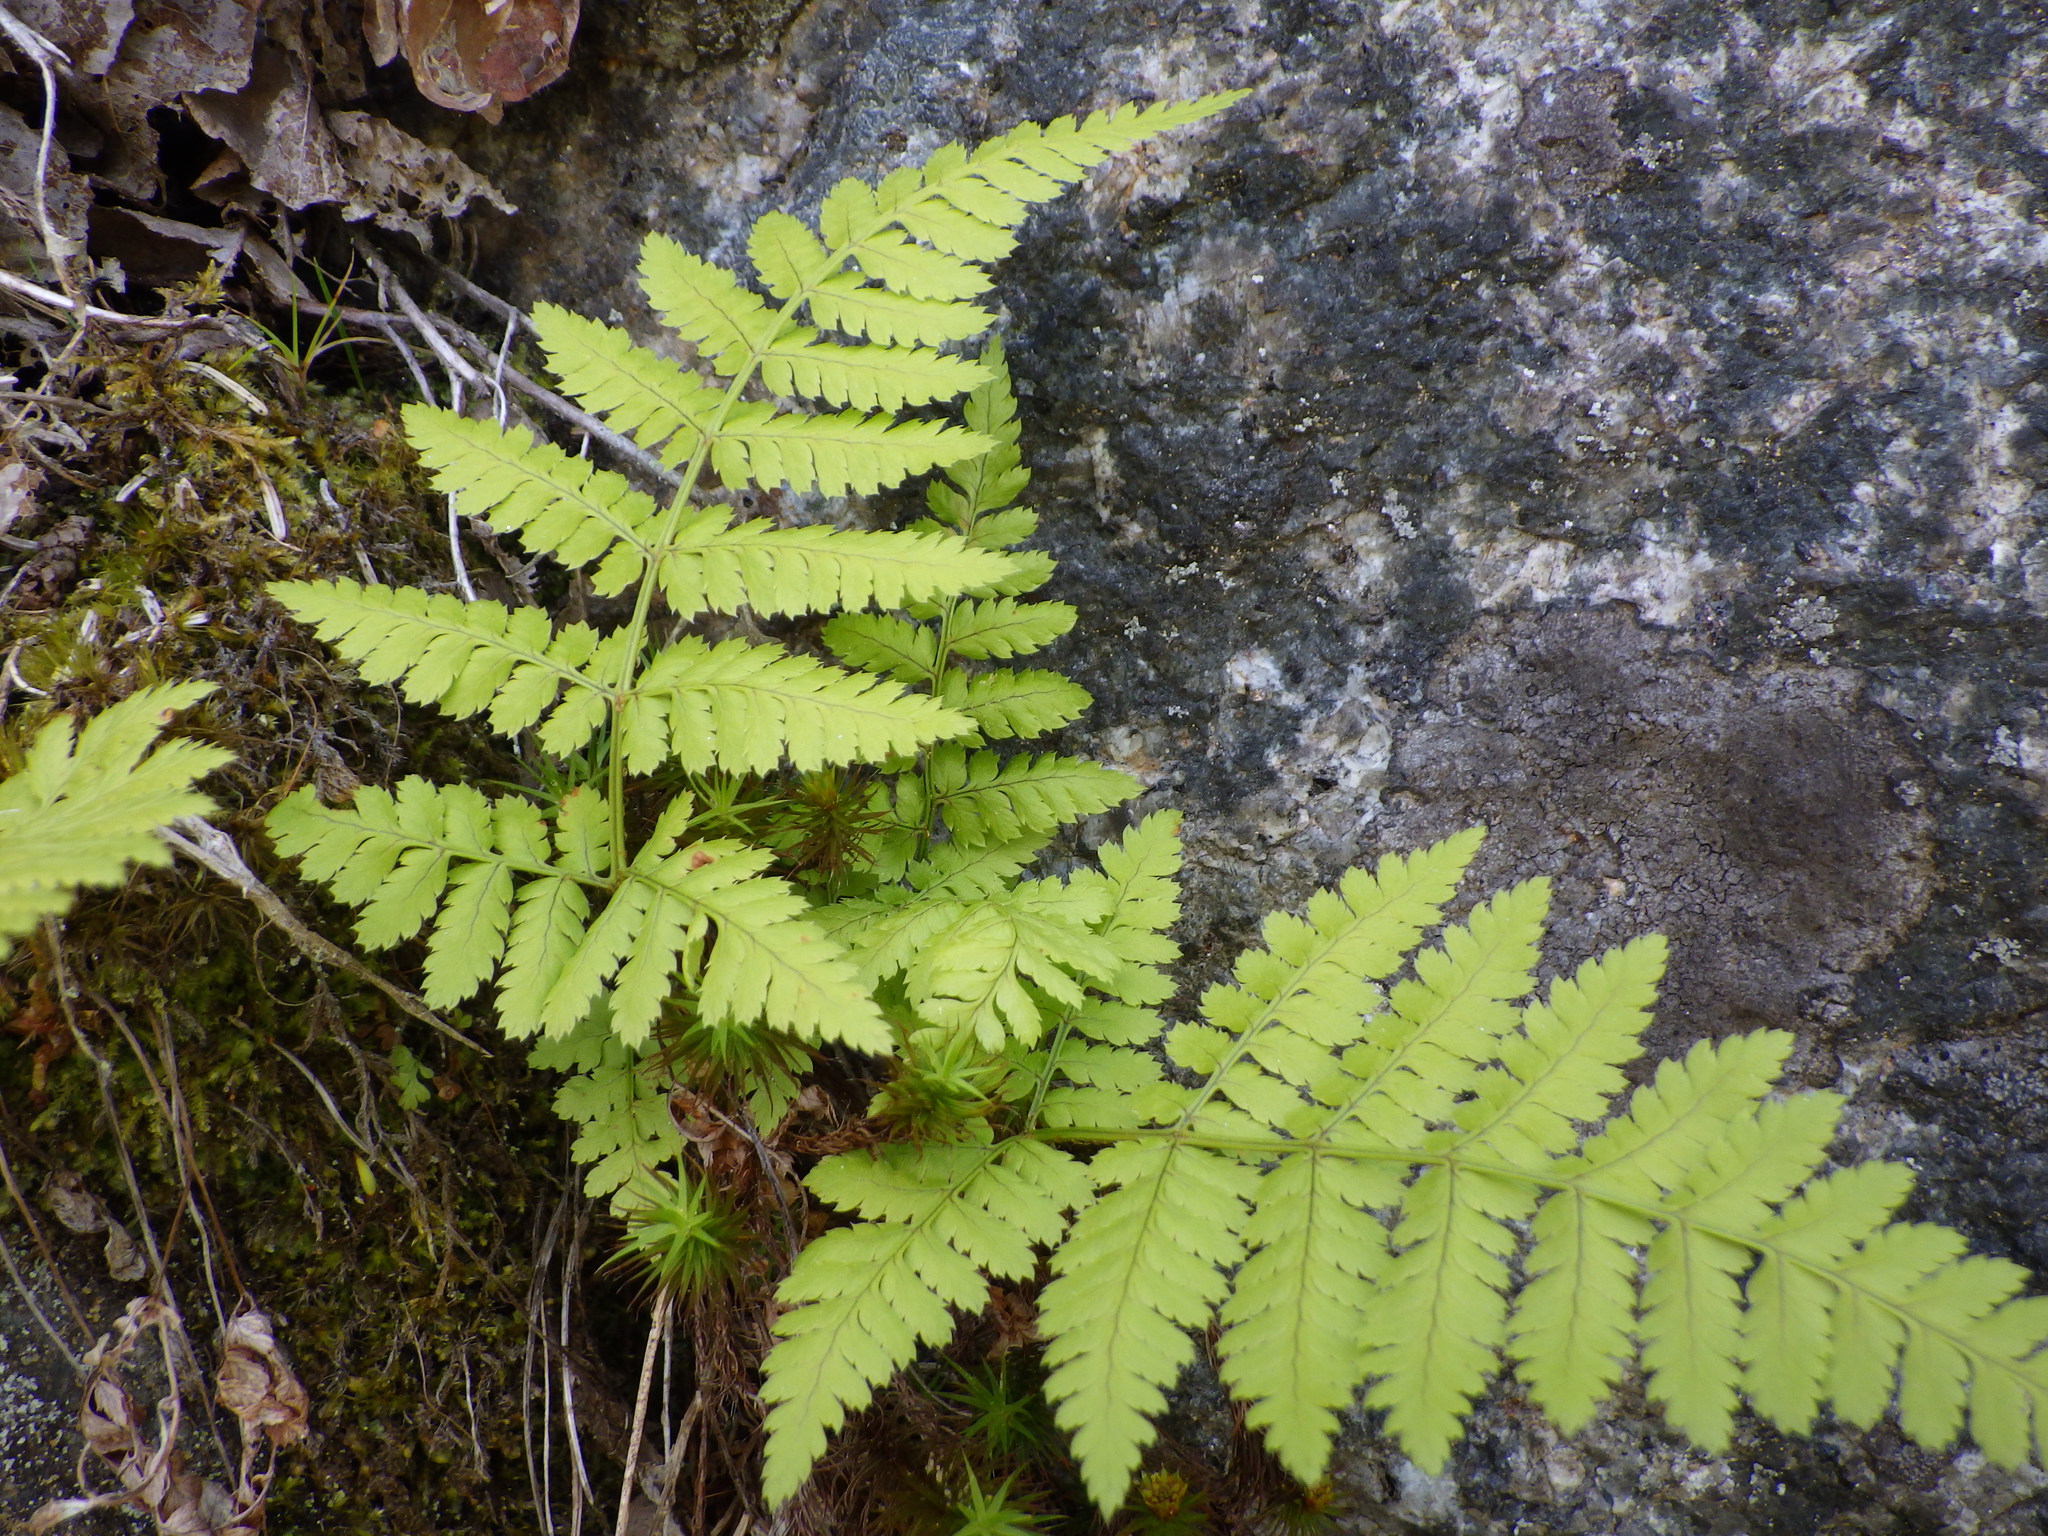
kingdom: Plantae
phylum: Tracheophyta
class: Polypodiopsida
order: Polypodiales
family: Dryopteridaceae
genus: Dryopteris
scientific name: Dryopteris intermedia
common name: Evergreen wood fern
